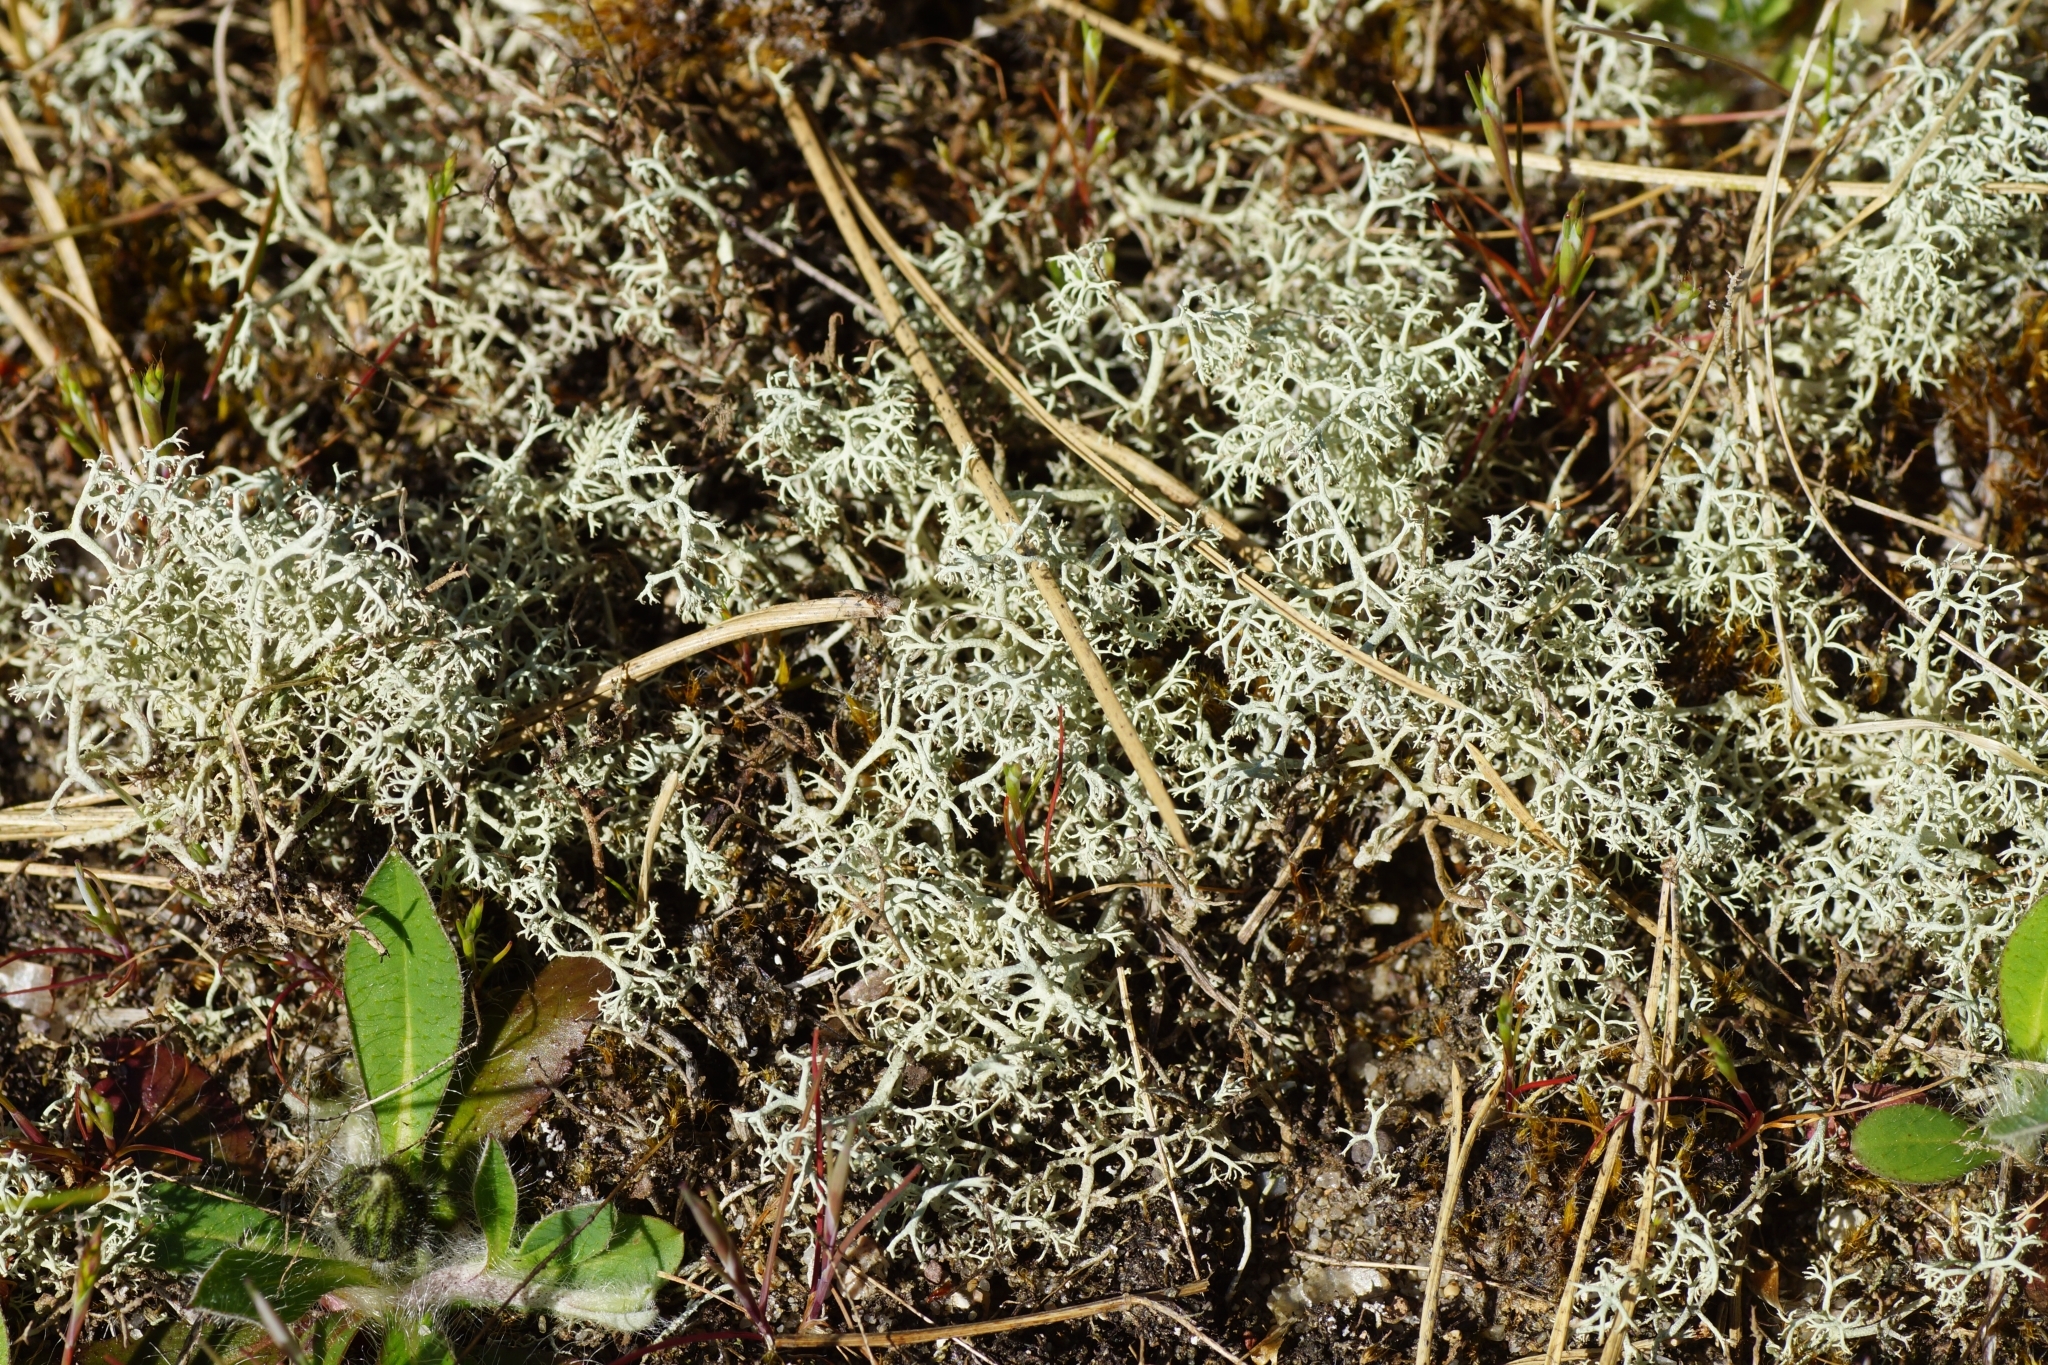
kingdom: Fungi
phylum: Ascomycota
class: Lecanoromycetes
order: Lecanorales
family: Cladoniaceae
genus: Cladonia
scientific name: Cladonia portentosa
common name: Reindeer lichen
